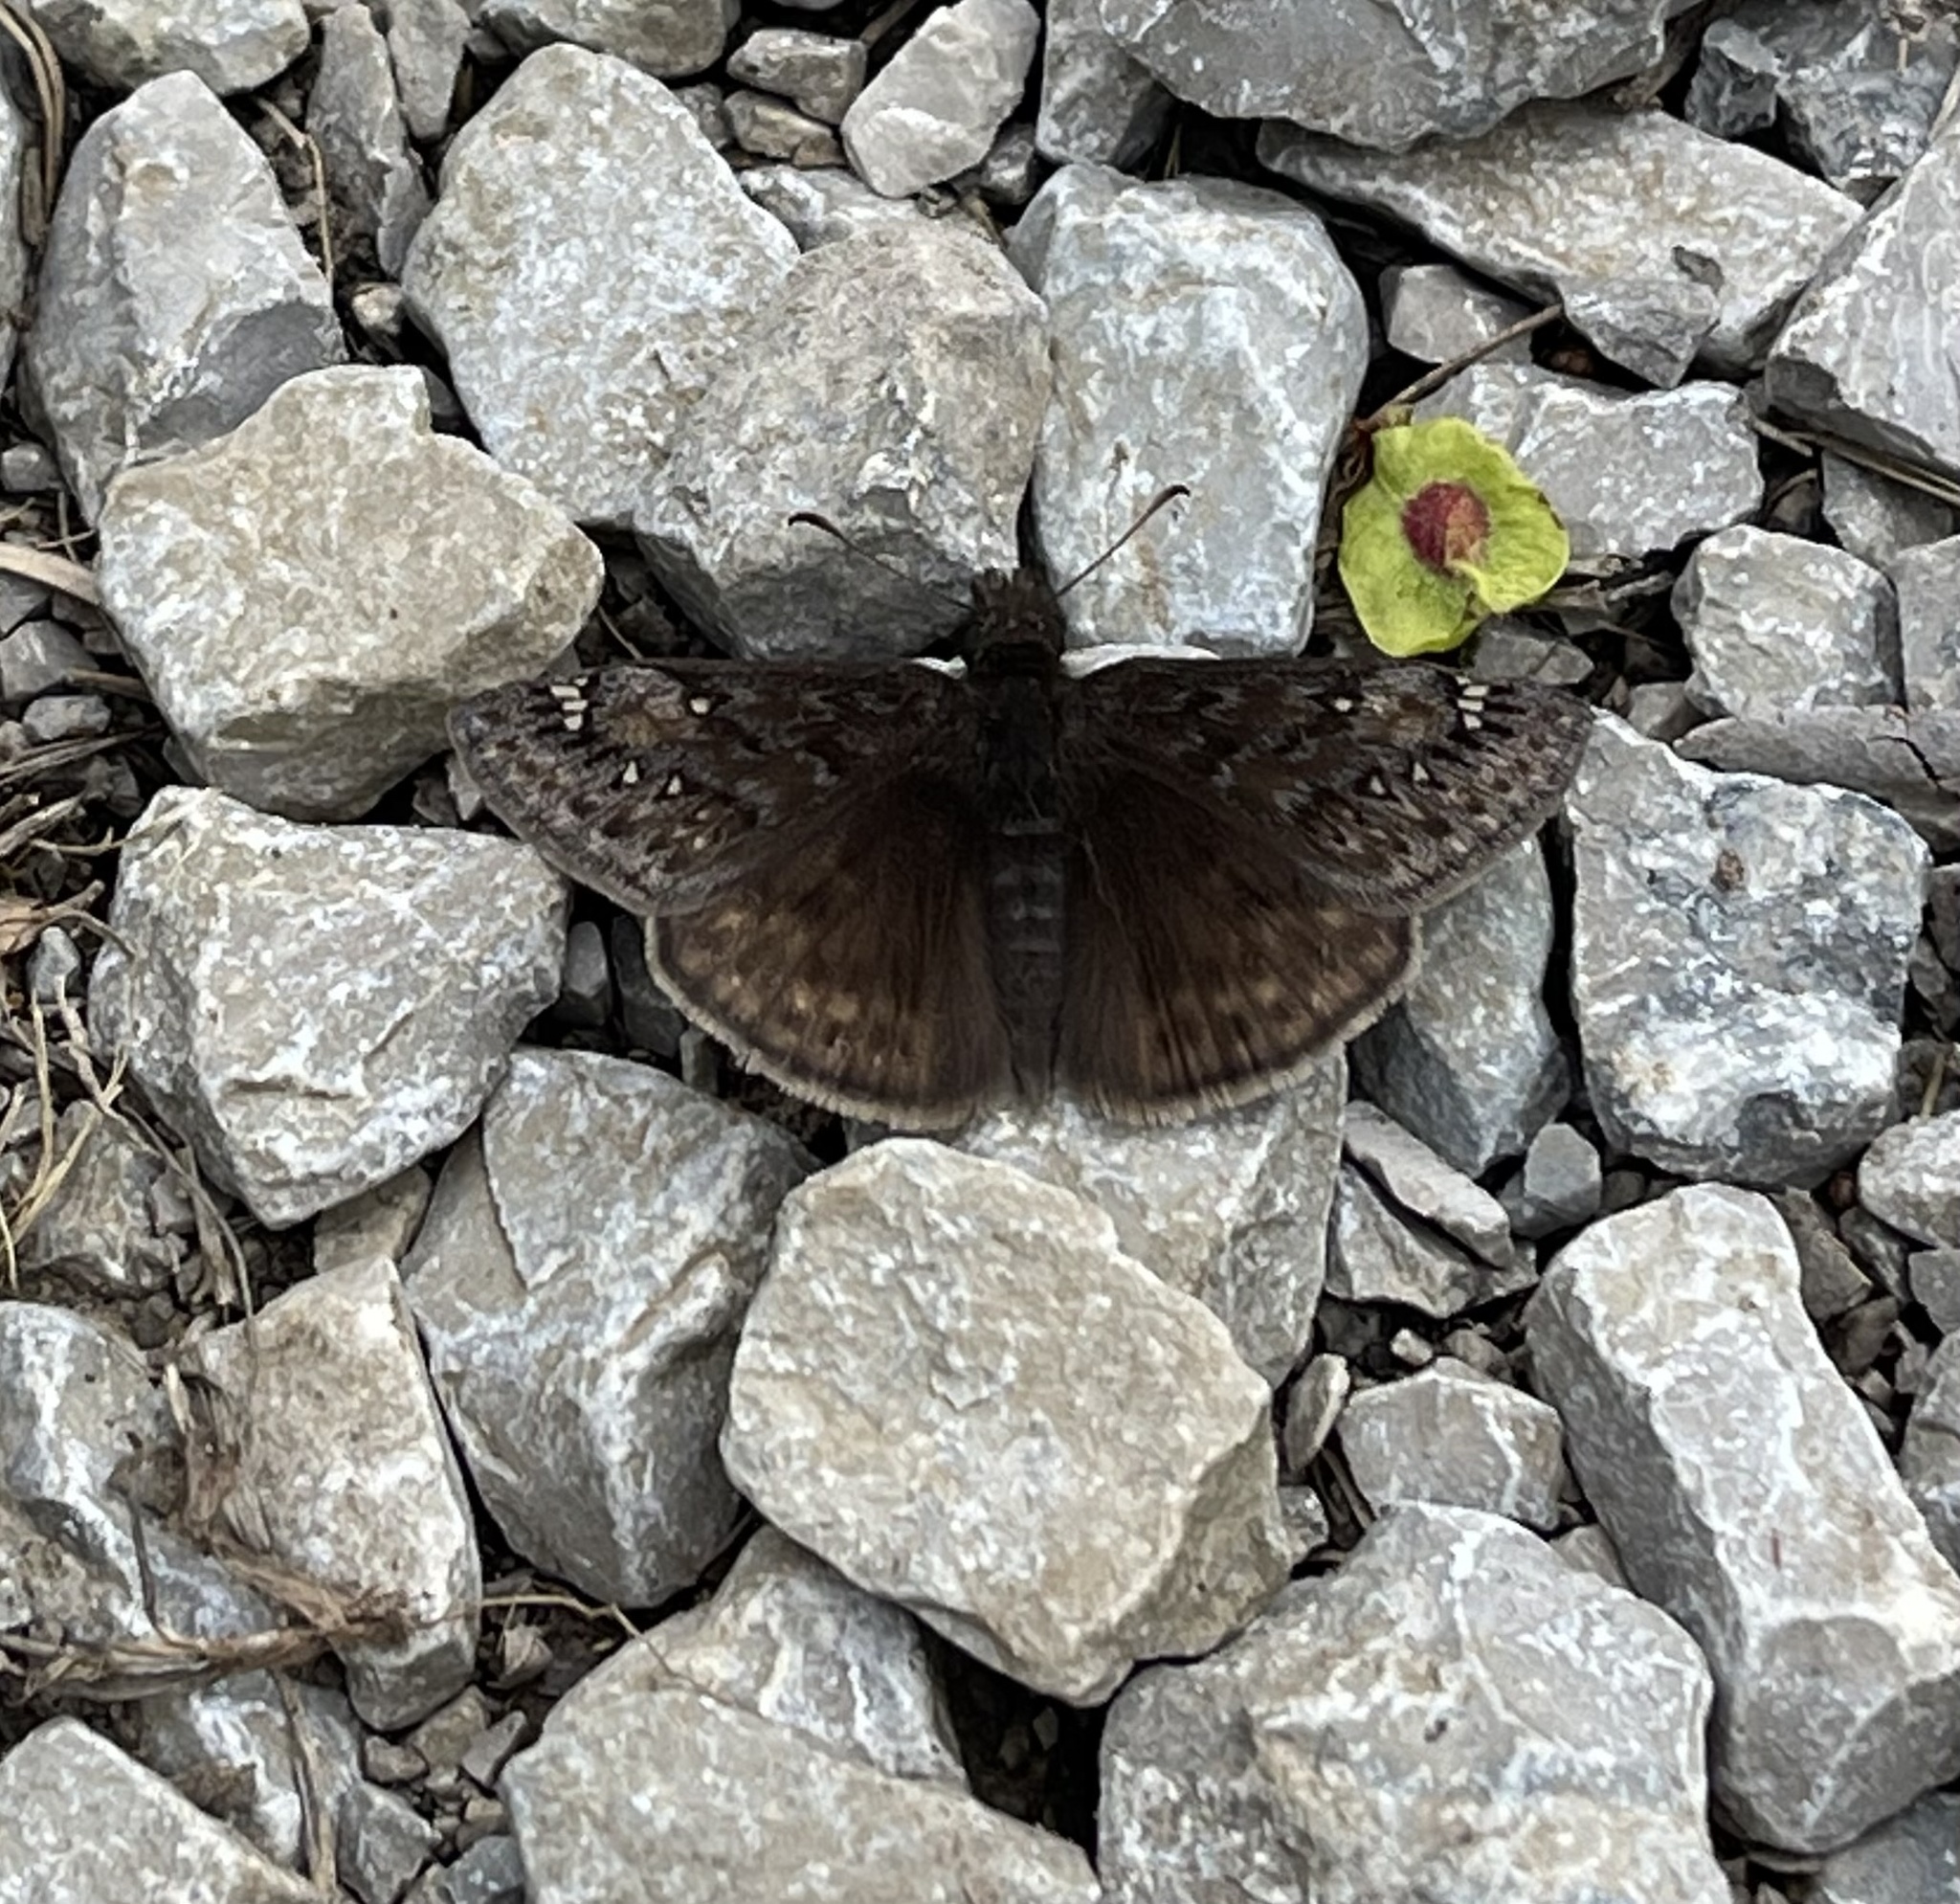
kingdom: Animalia
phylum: Arthropoda
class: Insecta
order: Lepidoptera
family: Hesperiidae
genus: Erynnis
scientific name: Erynnis baptisiae
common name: Wild indigo duskywing
